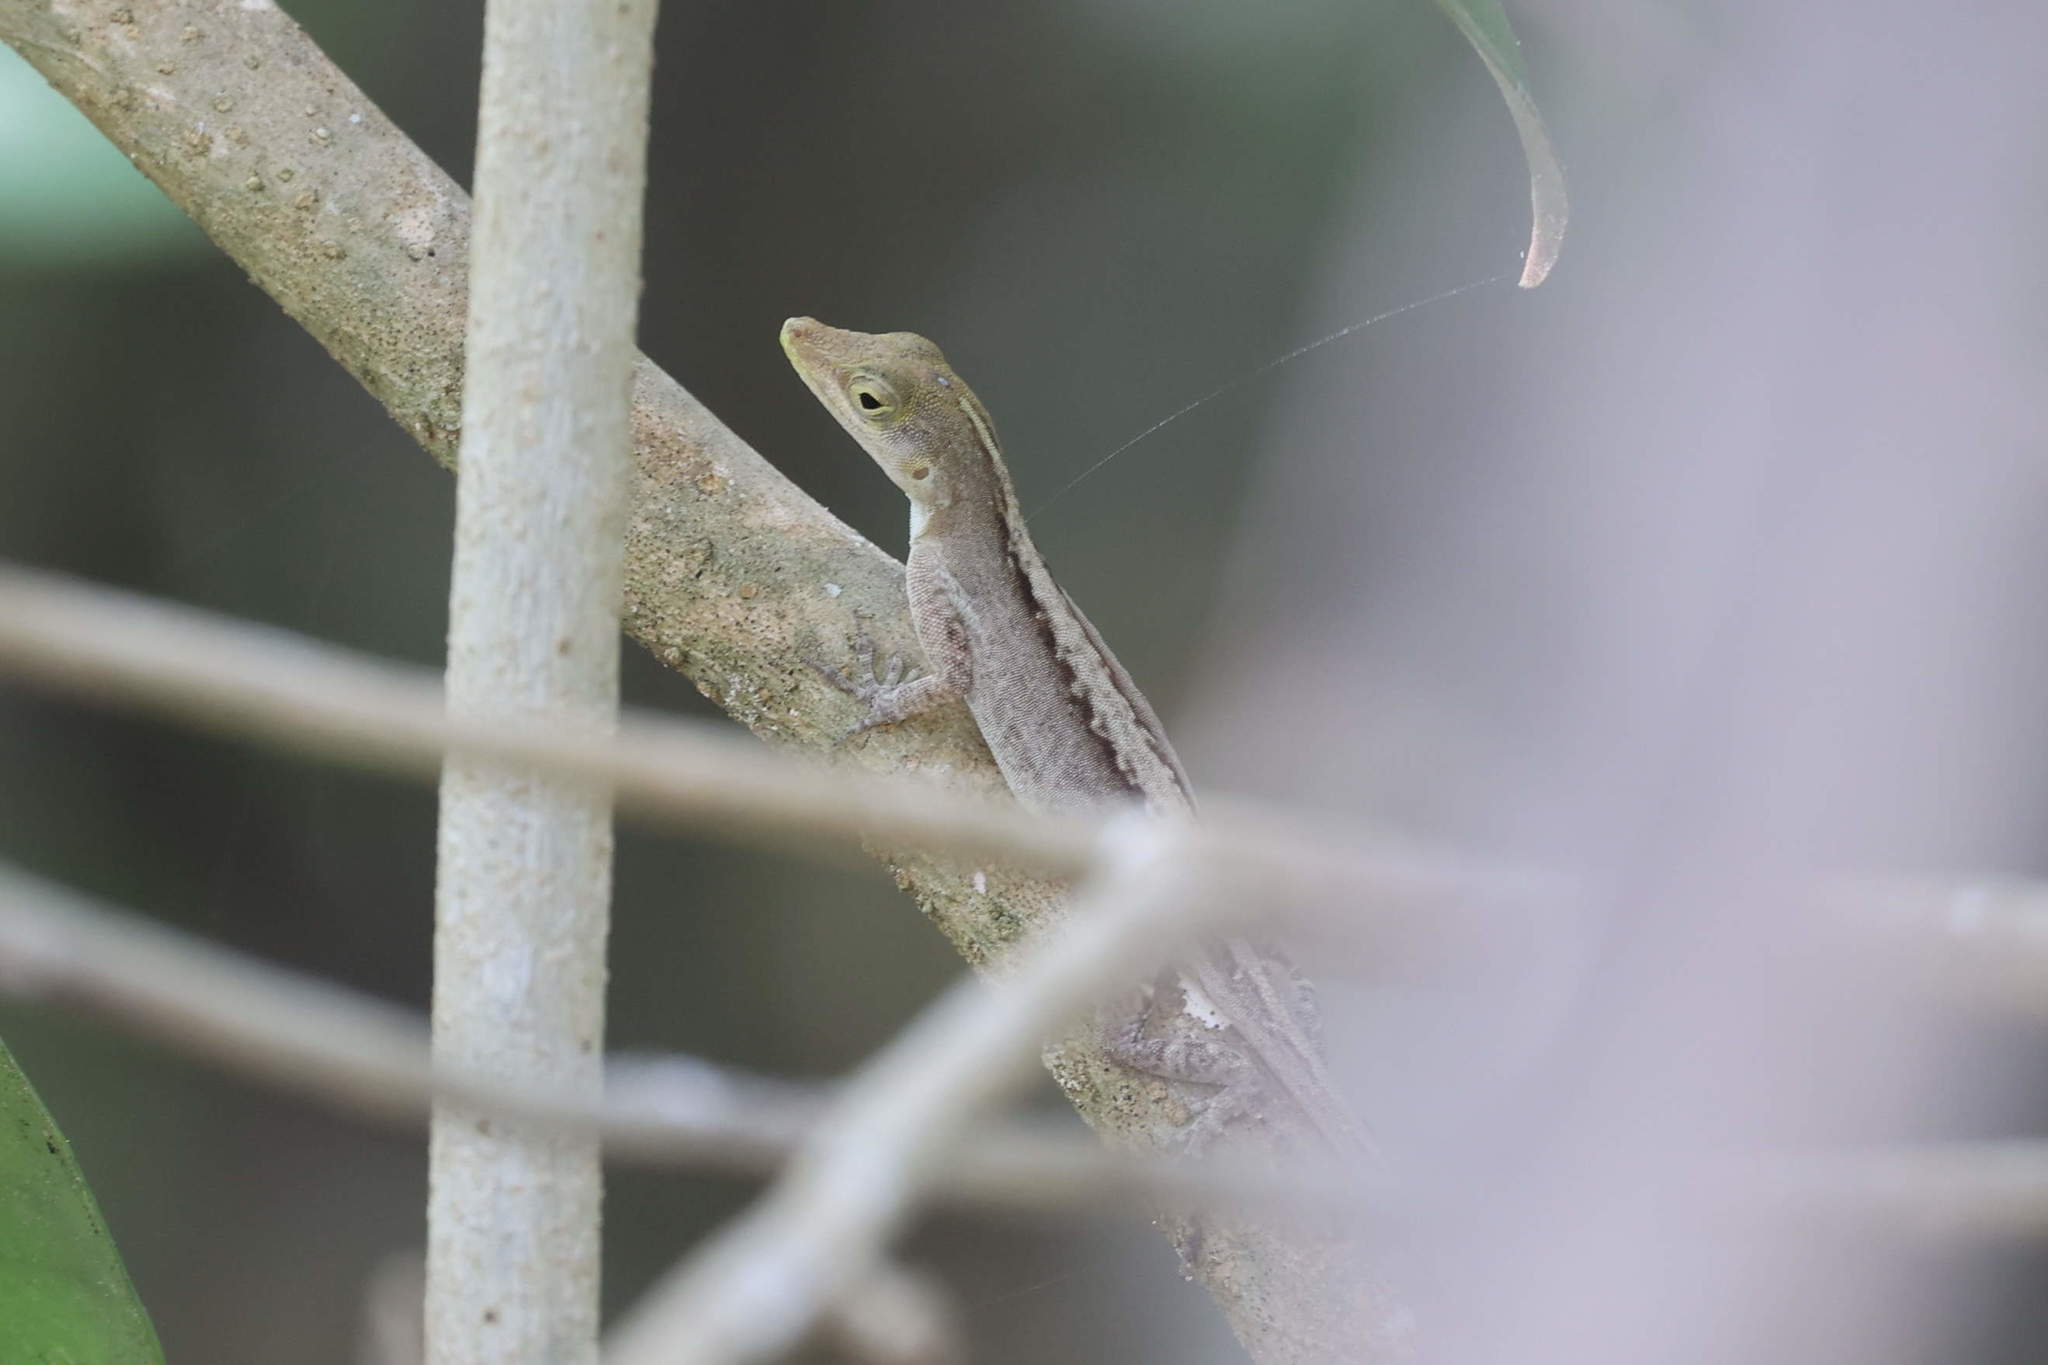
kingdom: Animalia
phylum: Chordata
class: Squamata
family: Dactyloidae
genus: Anolis
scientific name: Anolis marmoratus
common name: Guadeloupe anole
